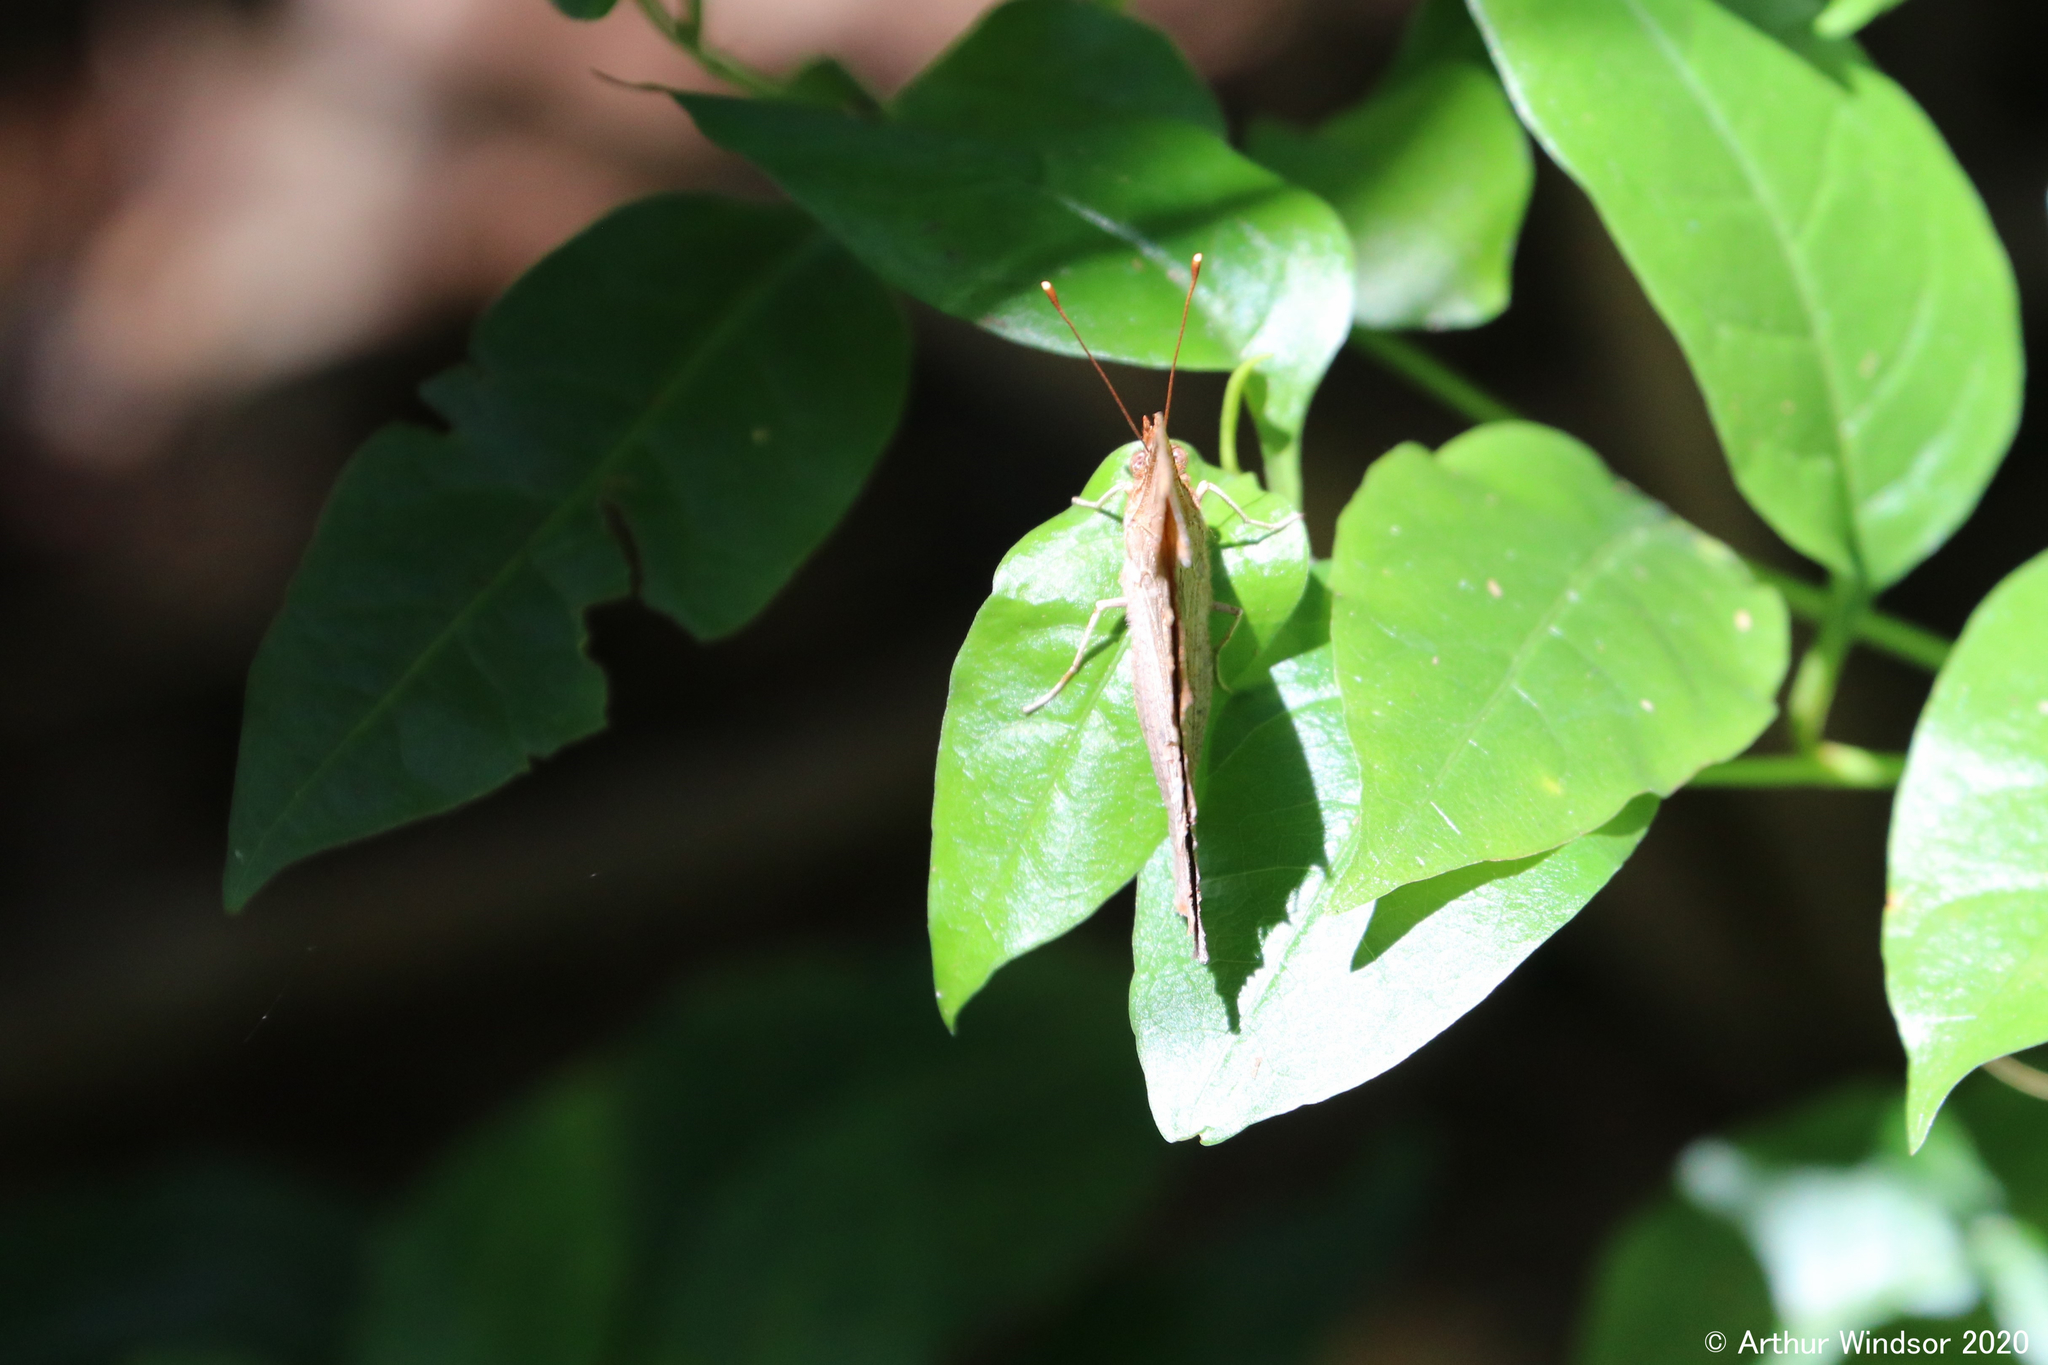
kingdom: Animalia
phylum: Arthropoda
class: Insecta
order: Lepidoptera
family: Nymphalidae
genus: Polygonia
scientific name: Polygonia interrogationis
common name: Question mark
